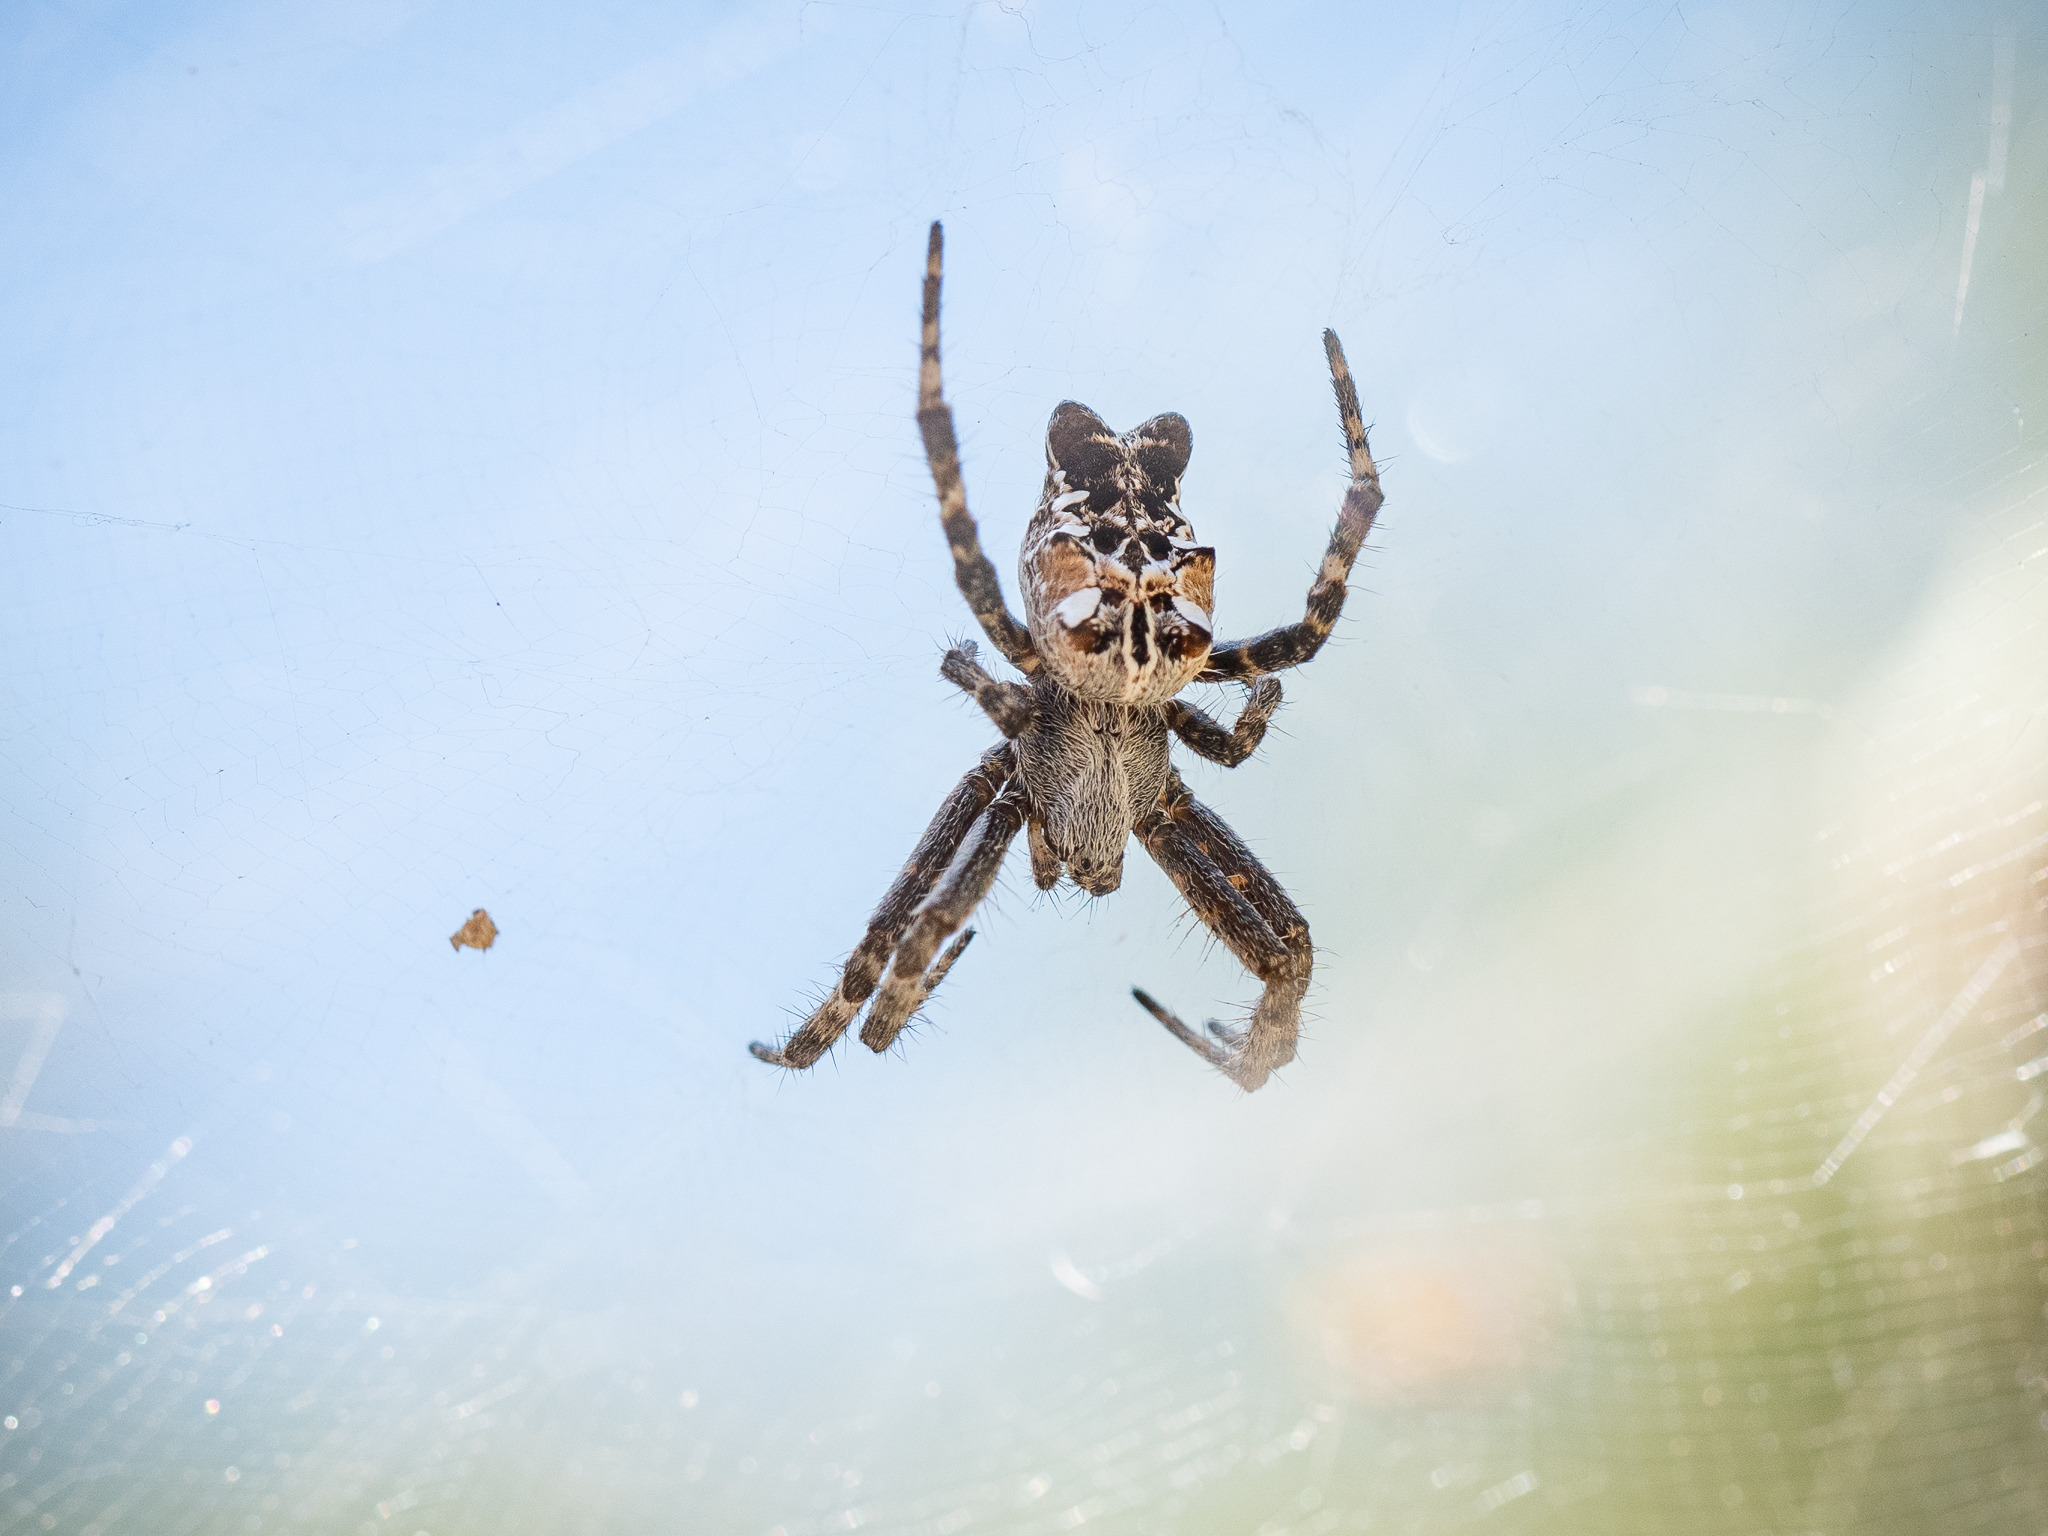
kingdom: Animalia
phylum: Arthropoda
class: Arachnida
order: Araneae
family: Araneidae
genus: Cyrtophora
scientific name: Cyrtophora citricola
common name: Orb weavers
